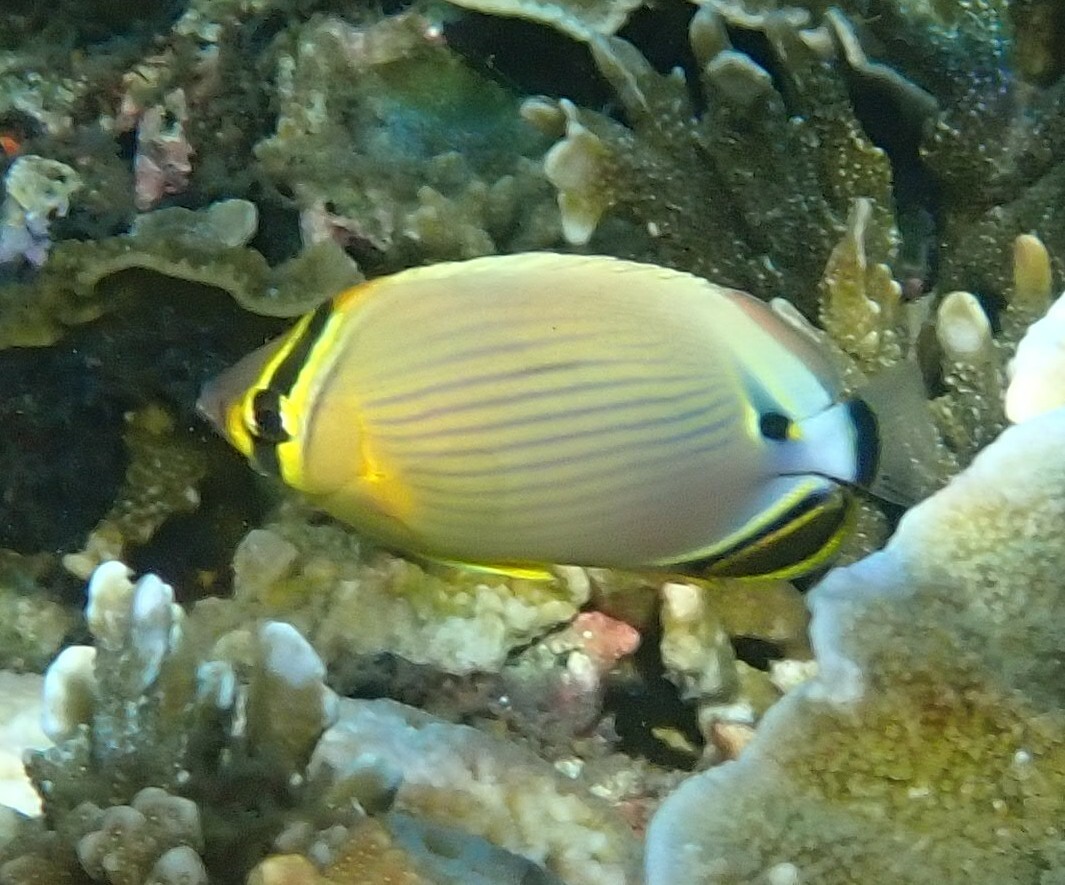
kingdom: Animalia
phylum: Chordata
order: Perciformes
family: Chaetodontidae
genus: Chaetodon
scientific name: Chaetodon lunulatus
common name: Redfin butterflyfish
